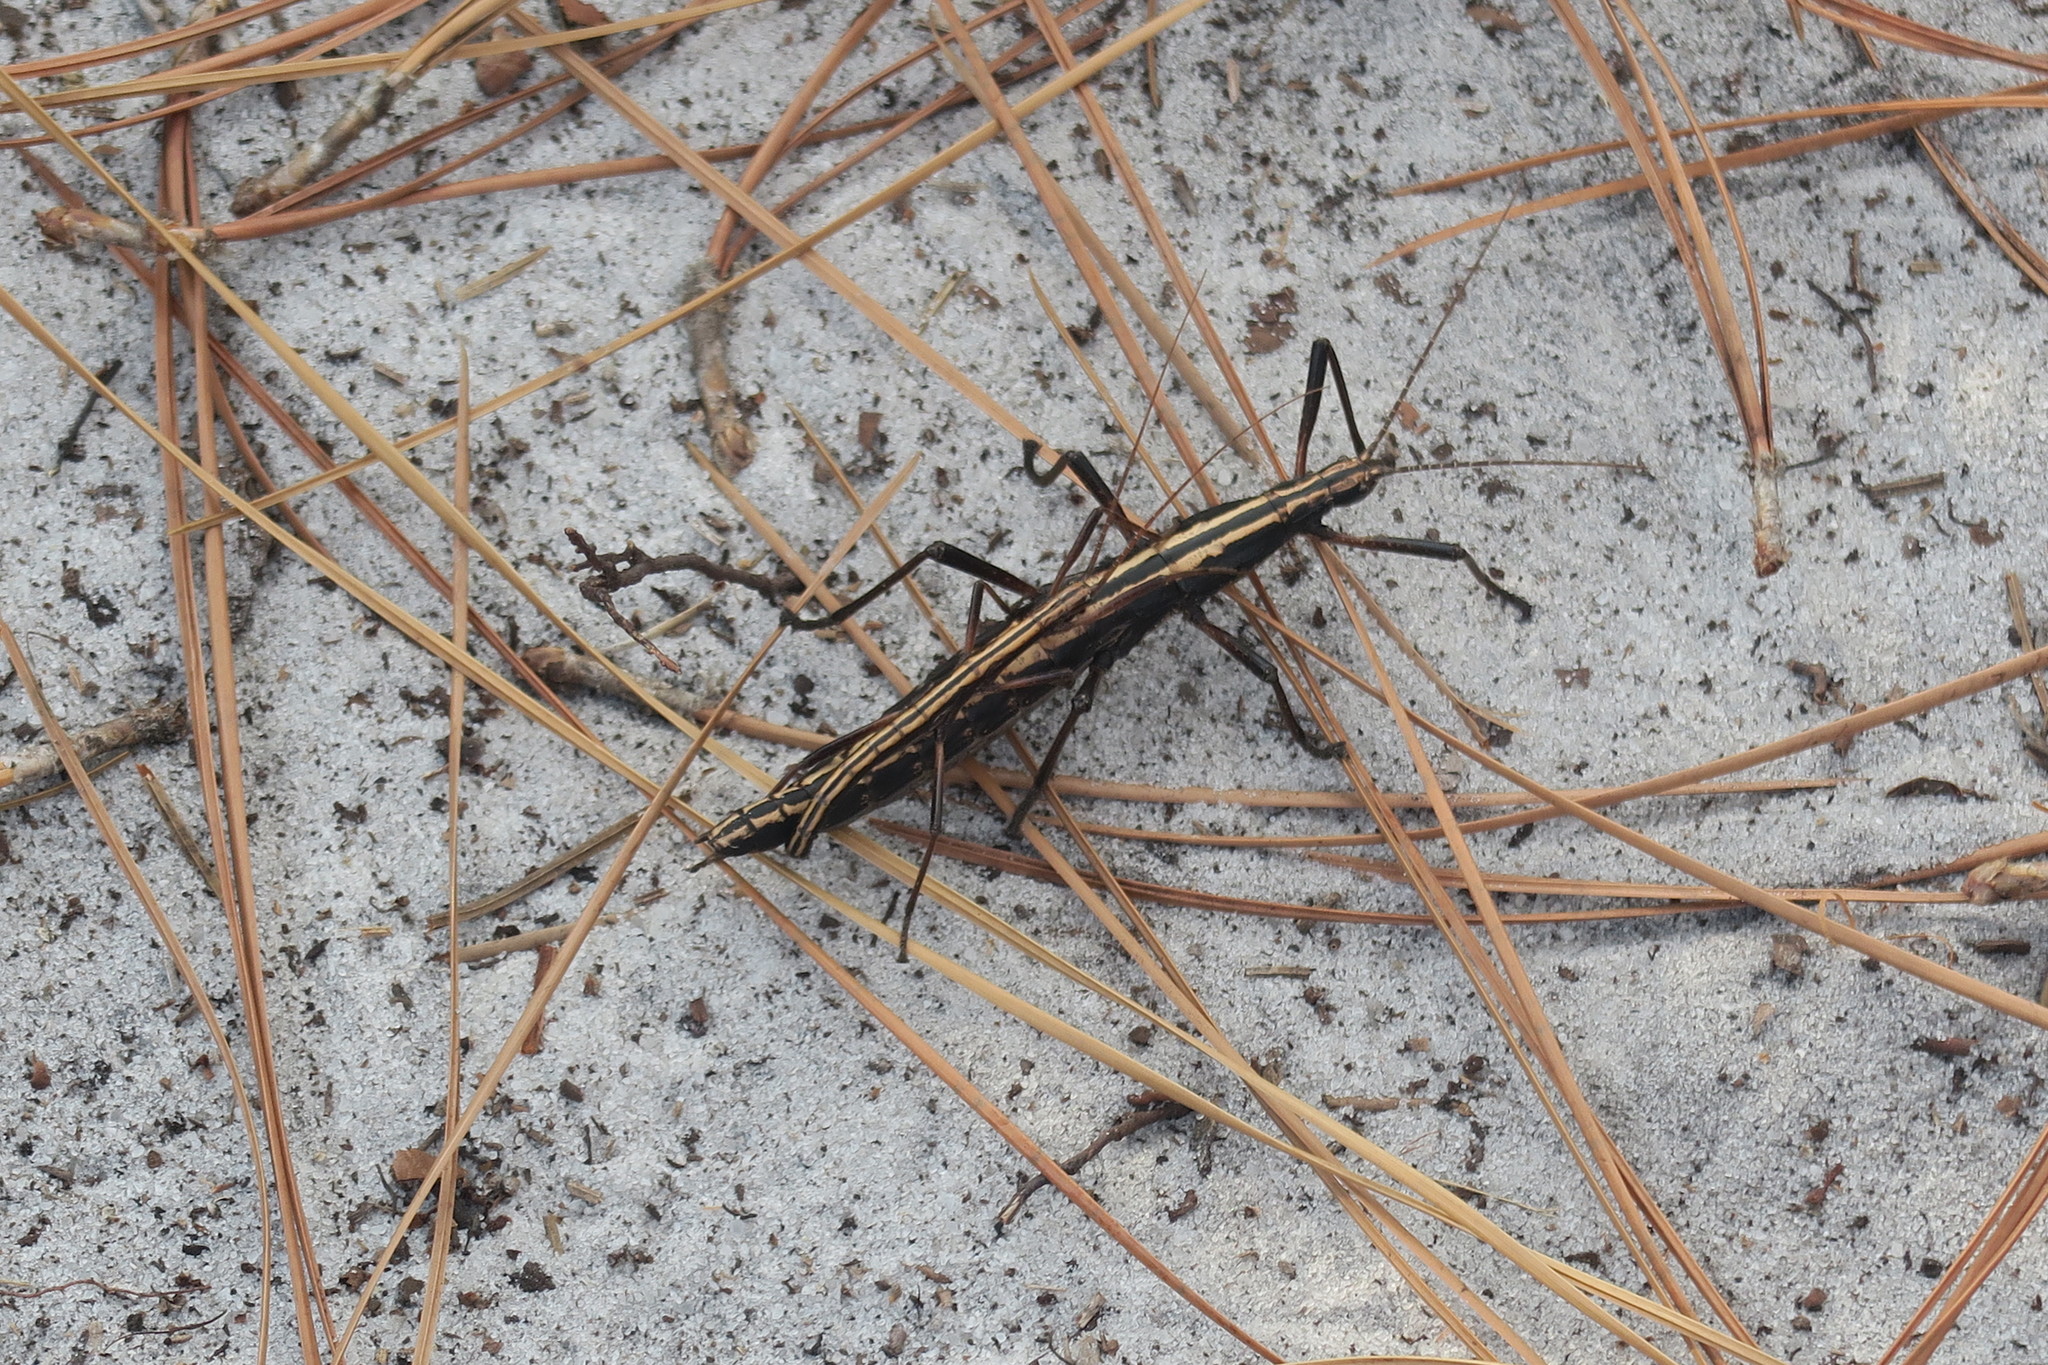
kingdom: Animalia
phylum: Arthropoda
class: Insecta
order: Phasmida
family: Pseudophasmatidae
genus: Anisomorpha
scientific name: Anisomorpha buprestoides
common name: Florida stick insect
